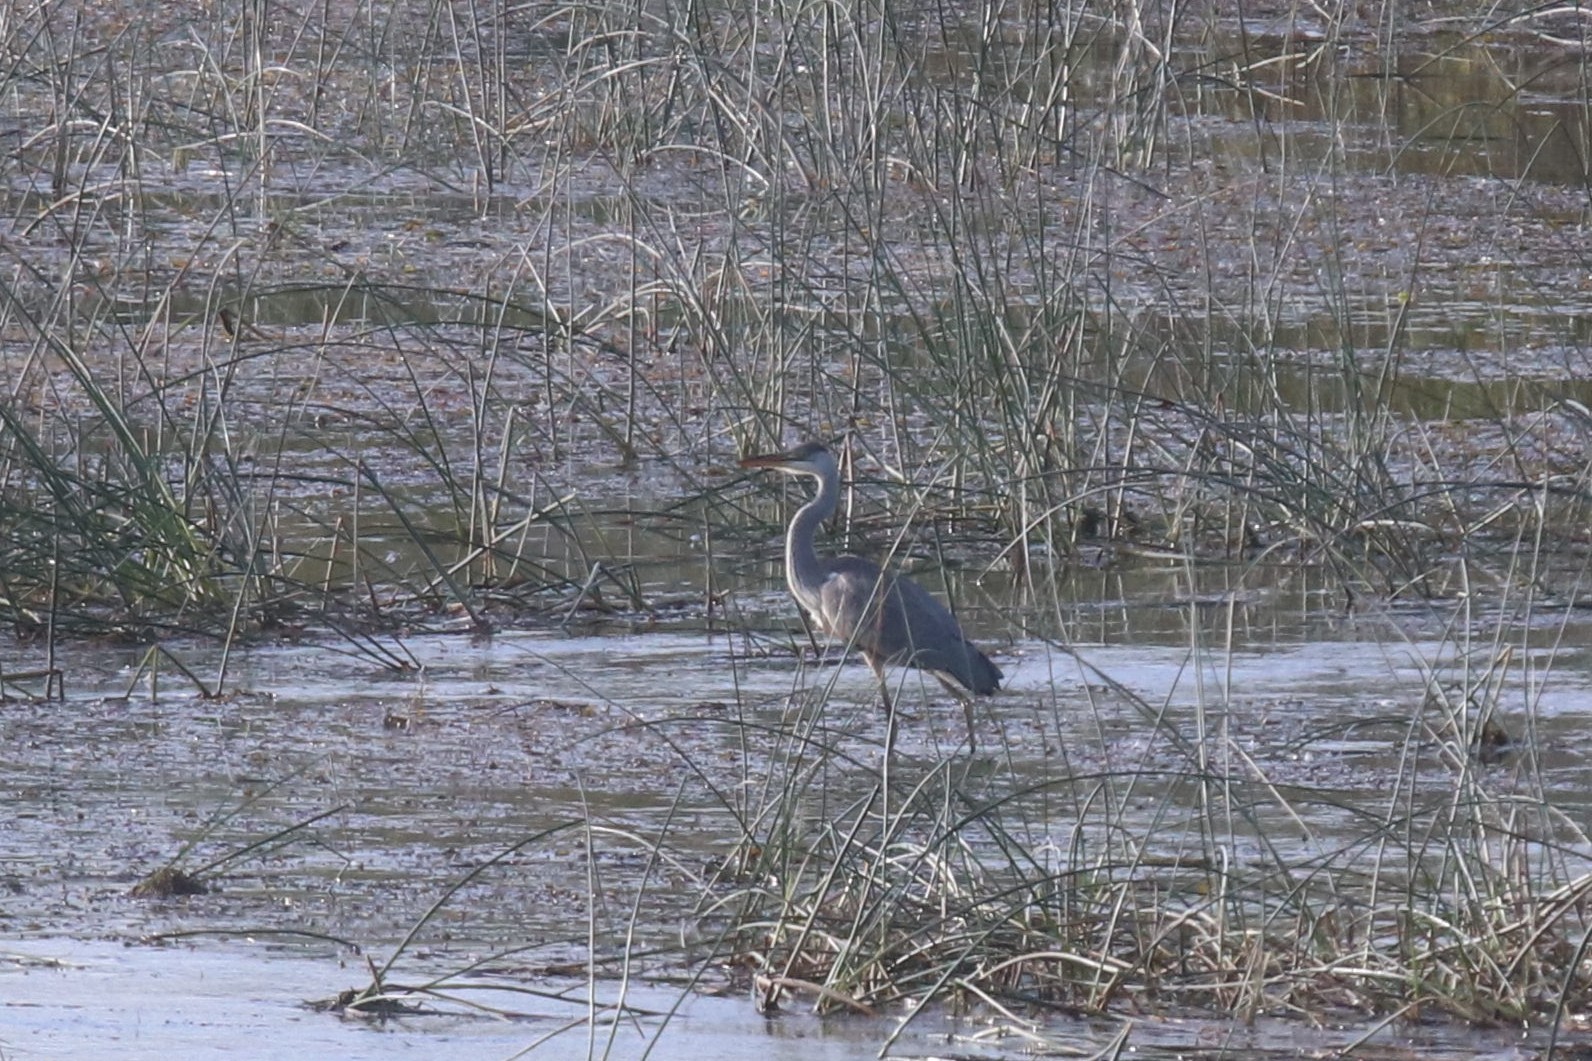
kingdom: Animalia
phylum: Chordata
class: Aves
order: Pelecaniformes
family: Ardeidae
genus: Ardea
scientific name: Ardea cinerea
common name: Grey heron
